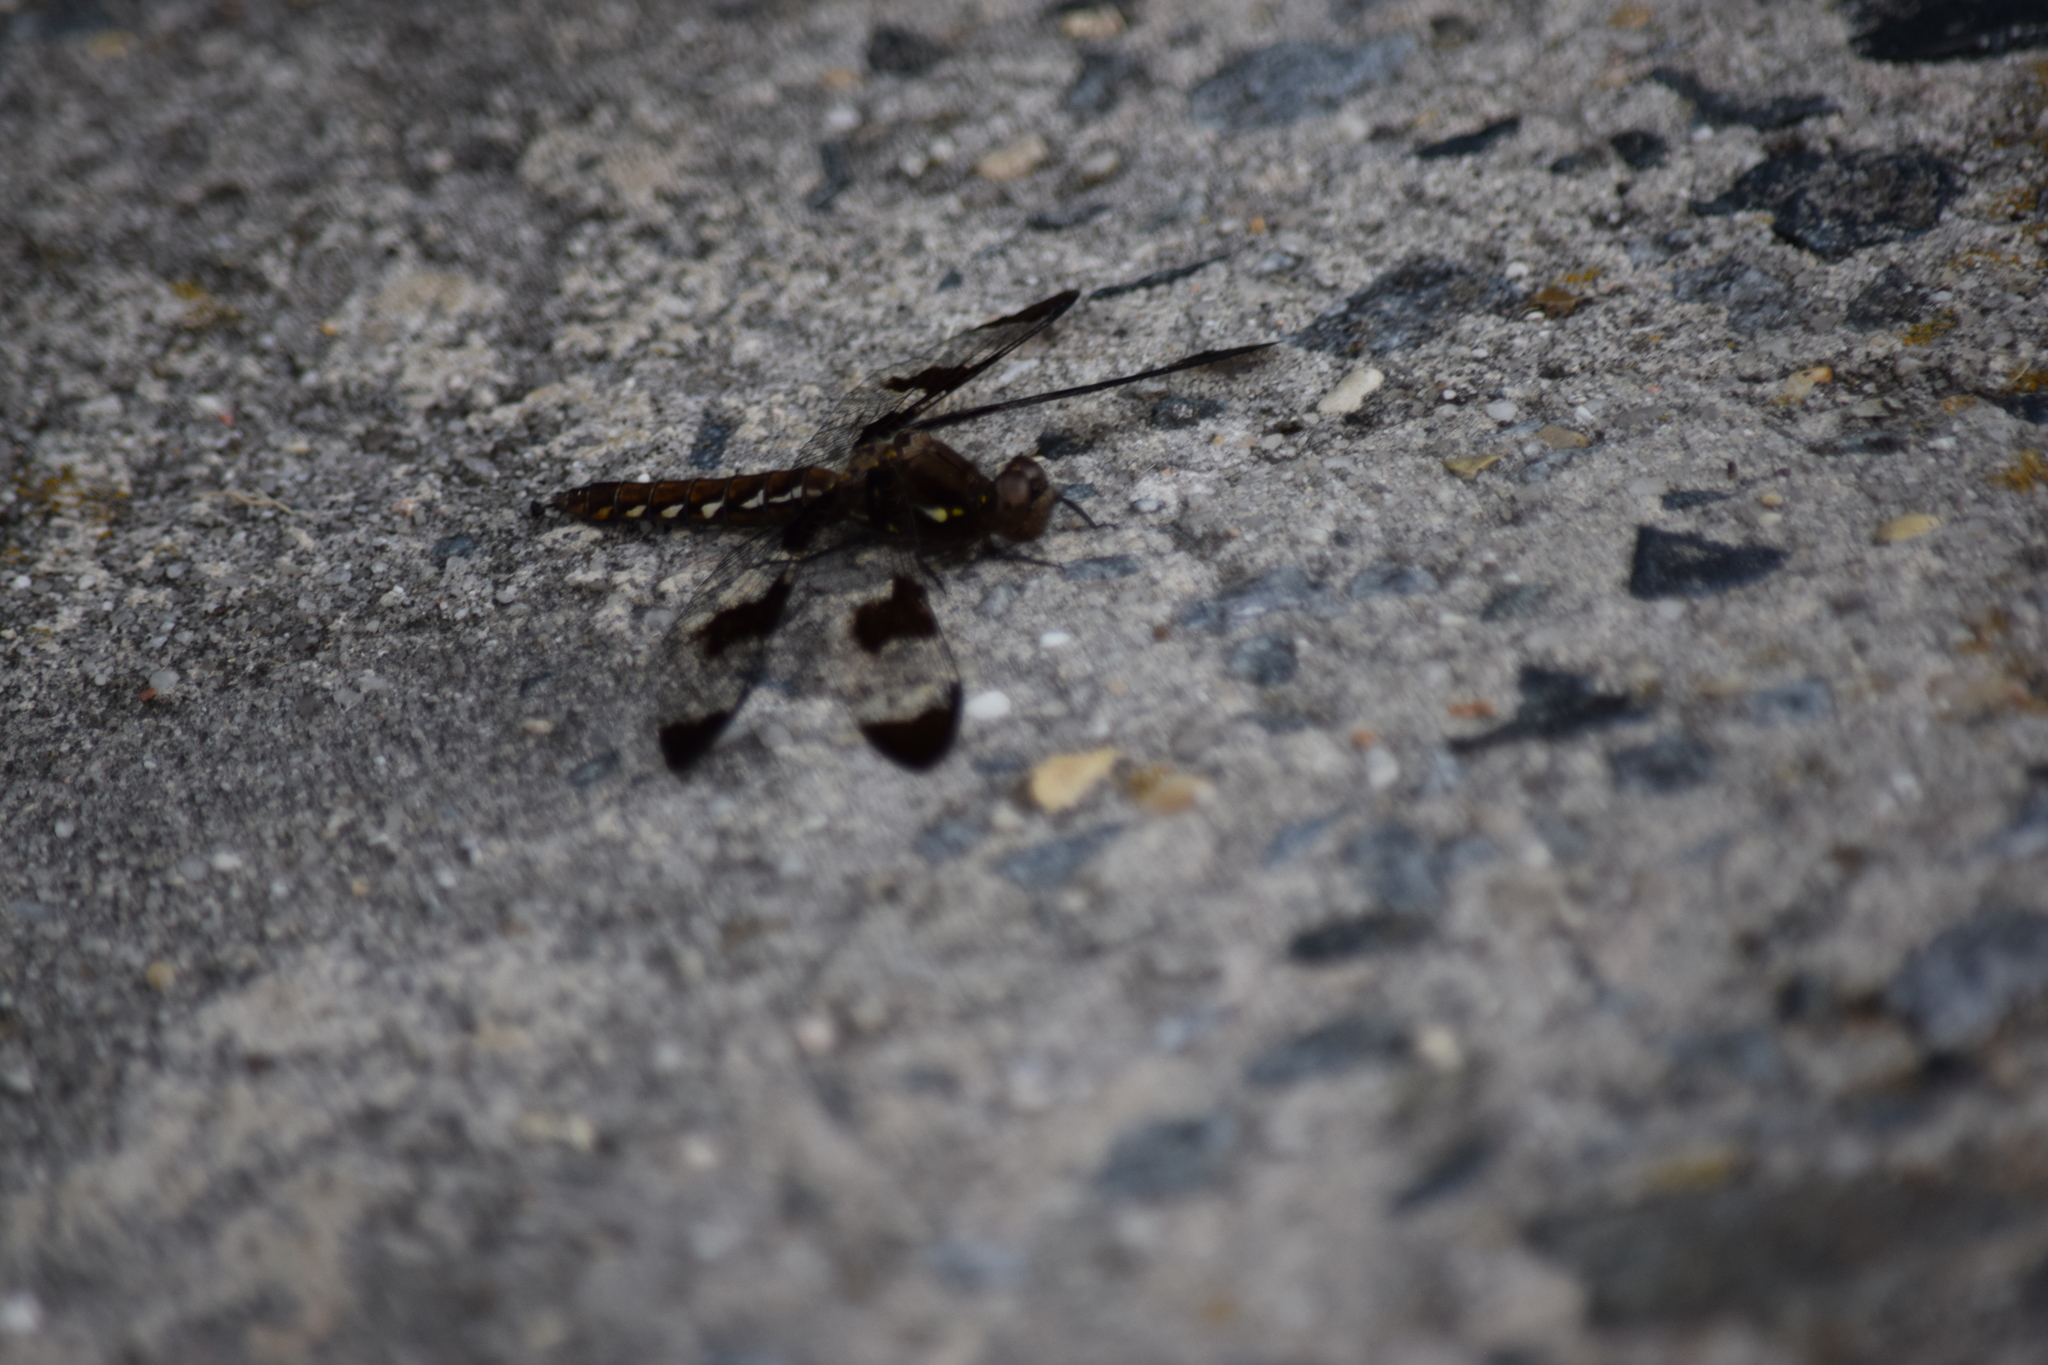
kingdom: Animalia
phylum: Arthropoda
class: Insecta
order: Odonata
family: Libellulidae
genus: Plathemis
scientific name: Plathemis lydia
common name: Common whitetail
